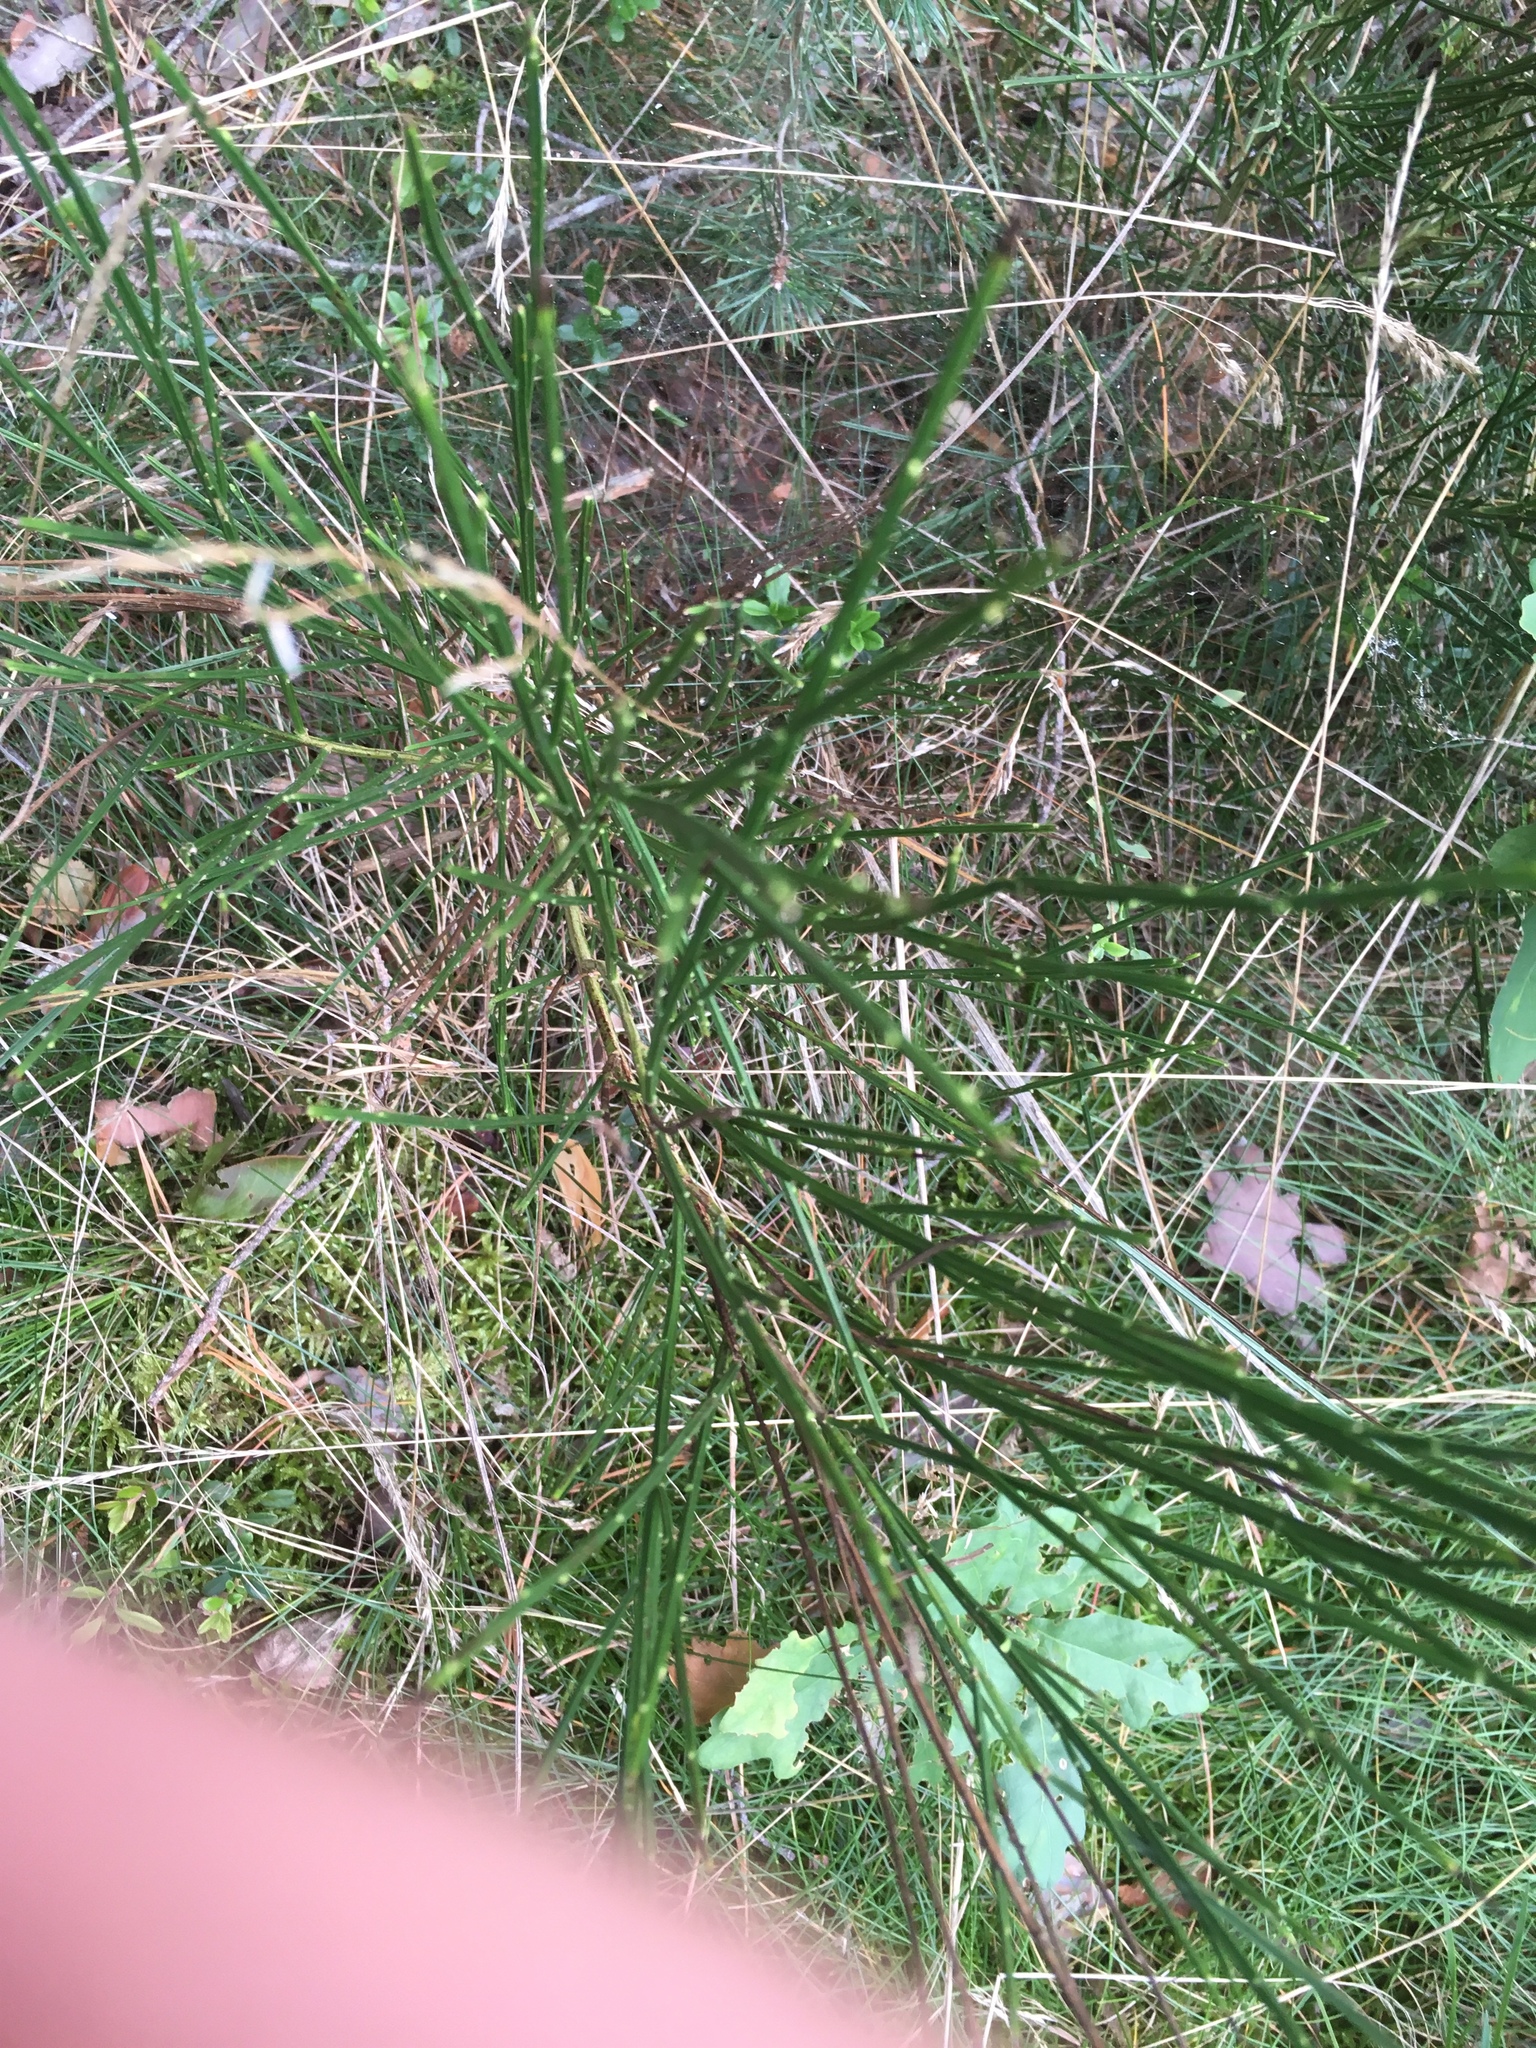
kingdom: Plantae
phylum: Tracheophyta
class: Magnoliopsida
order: Fabales
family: Fabaceae
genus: Cytisus
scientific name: Cytisus scoparius
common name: Scotch broom
